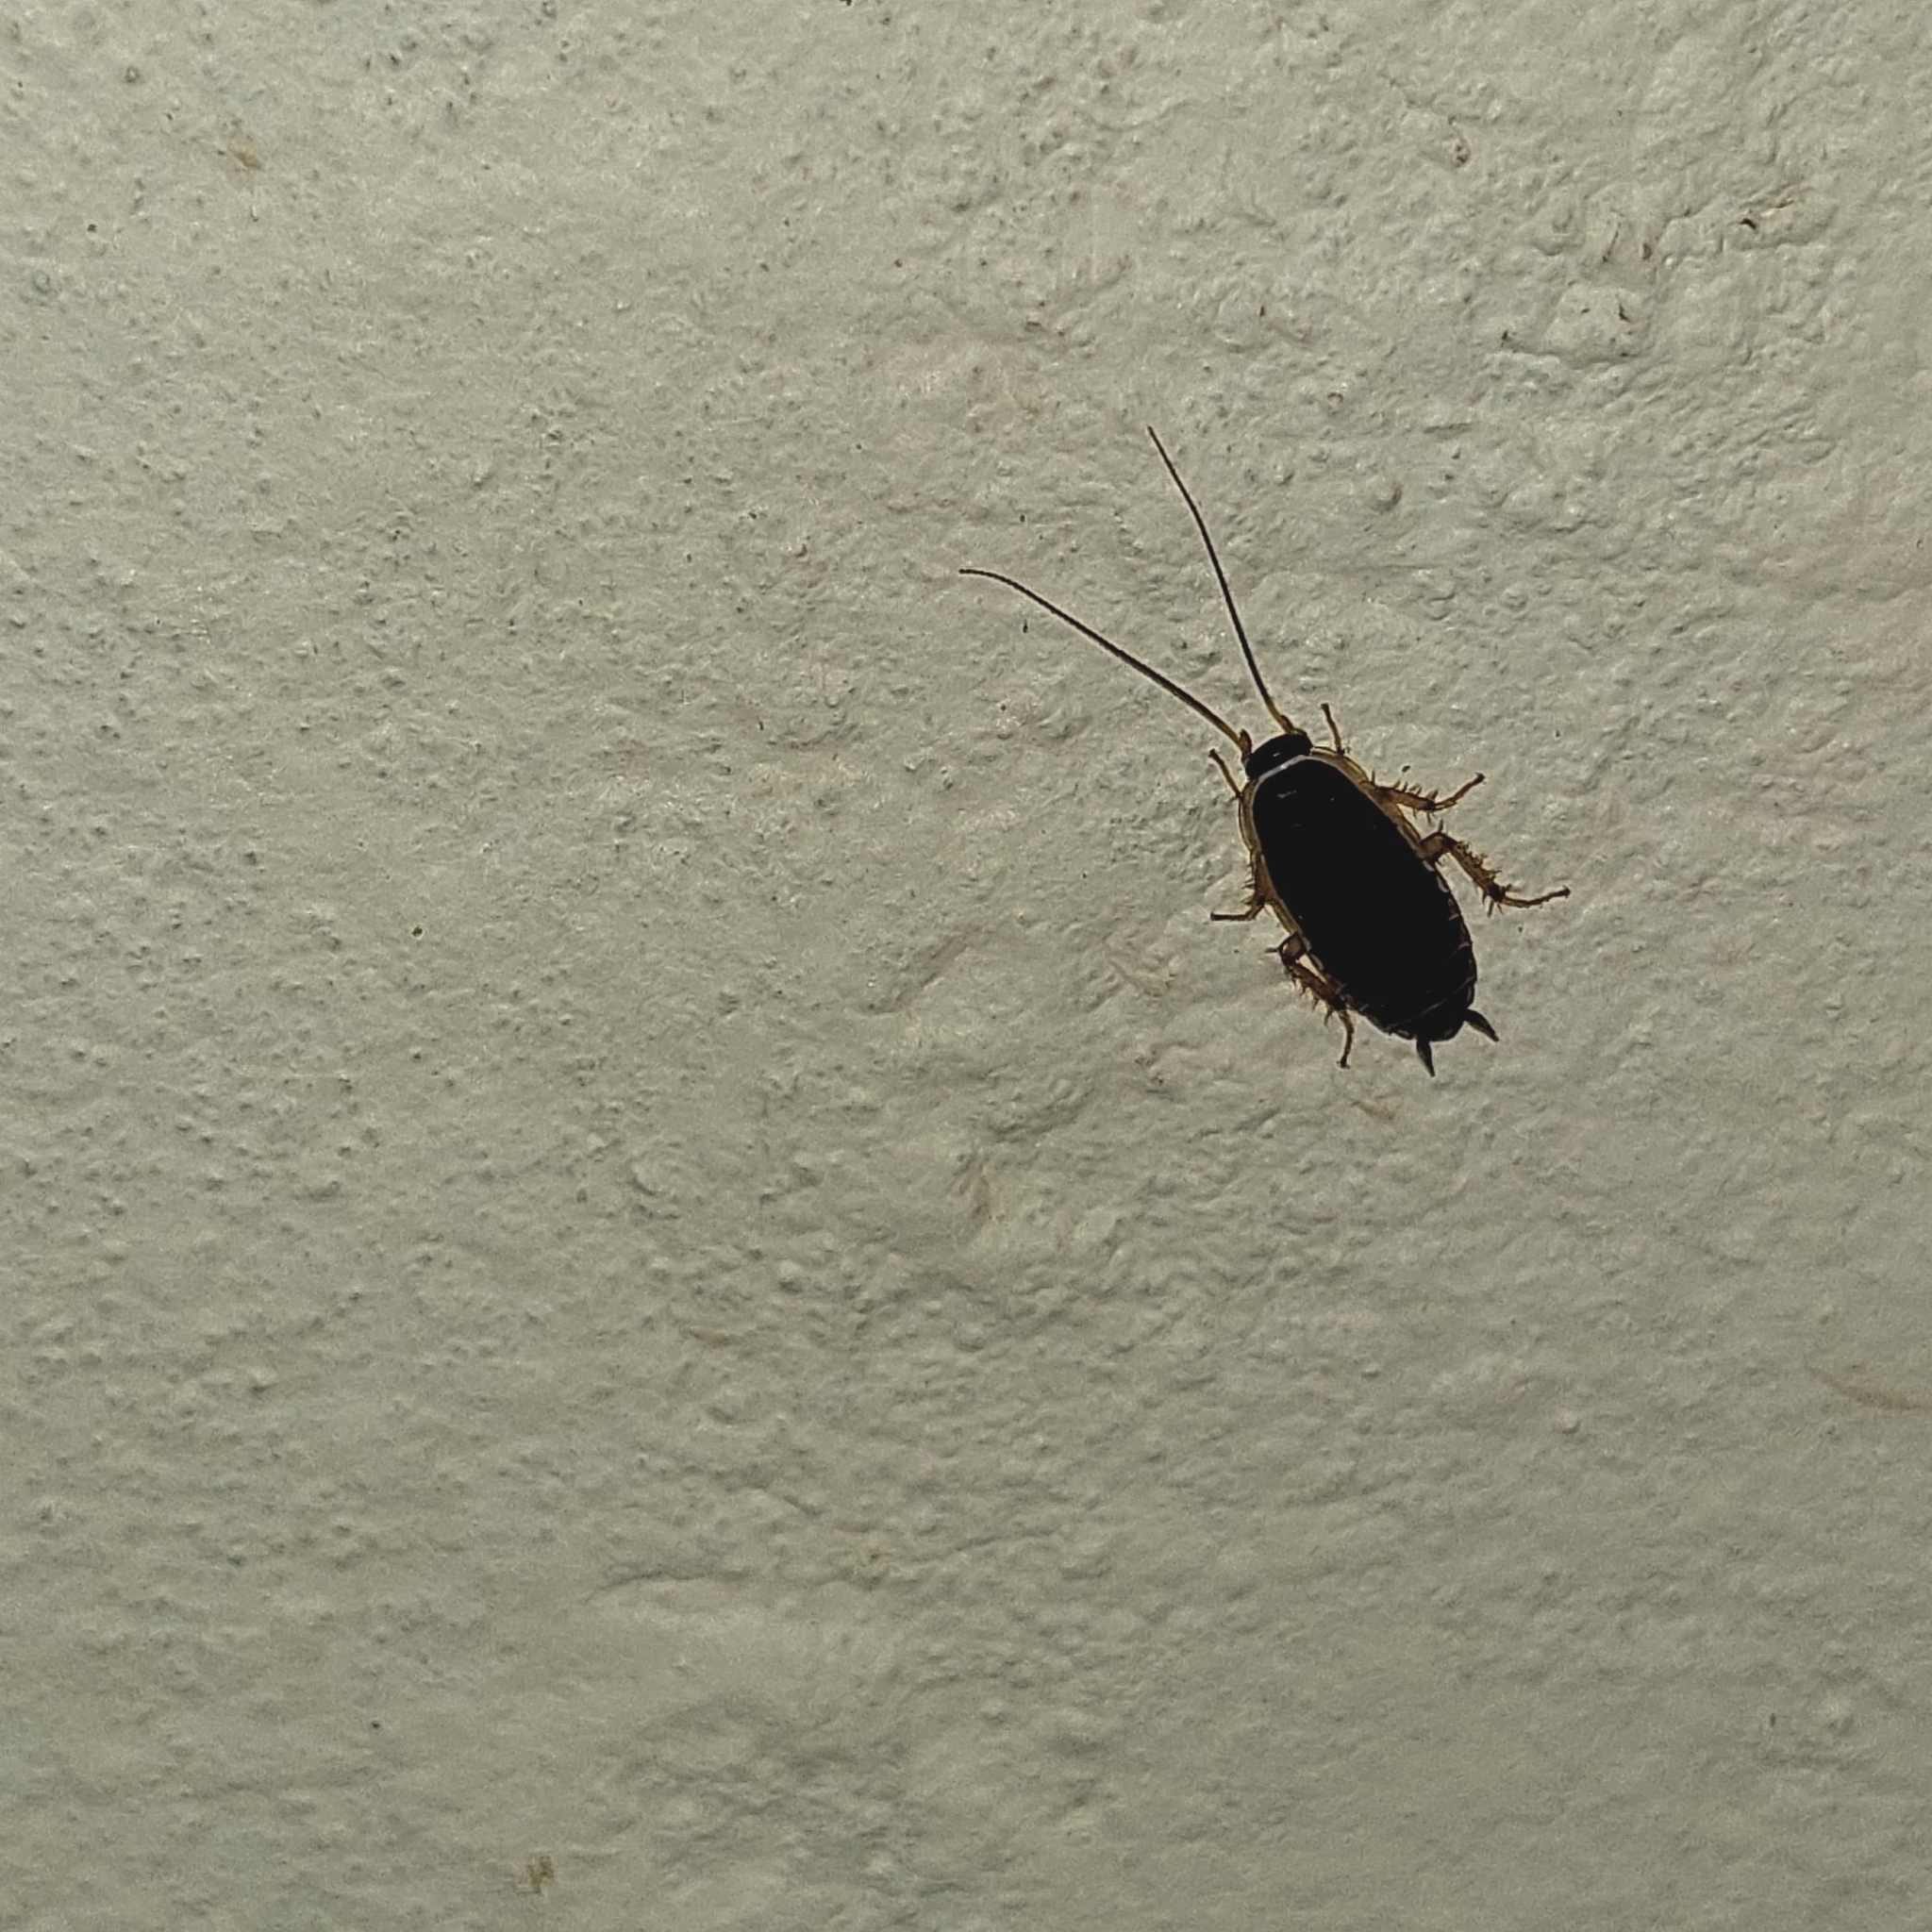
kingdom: Animalia
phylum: Arthropoda
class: Insecta
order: Blattodea
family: Ectobiidae
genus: Agmoblatta
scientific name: Agmoblatta thaxteri
